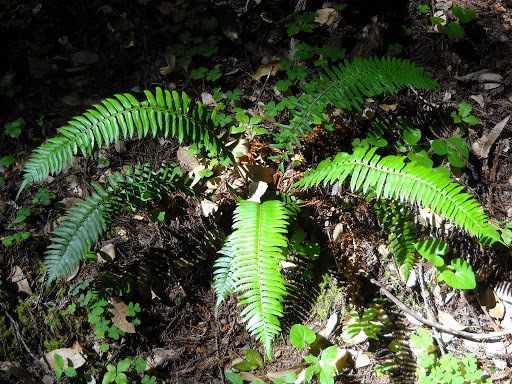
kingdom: Plantae
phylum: Tracheophyta
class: Polypodiopsida
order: Polypodiales
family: Dryopteridaceae
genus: Polystichum
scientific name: Polystichum munitum
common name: Western sword-fern
